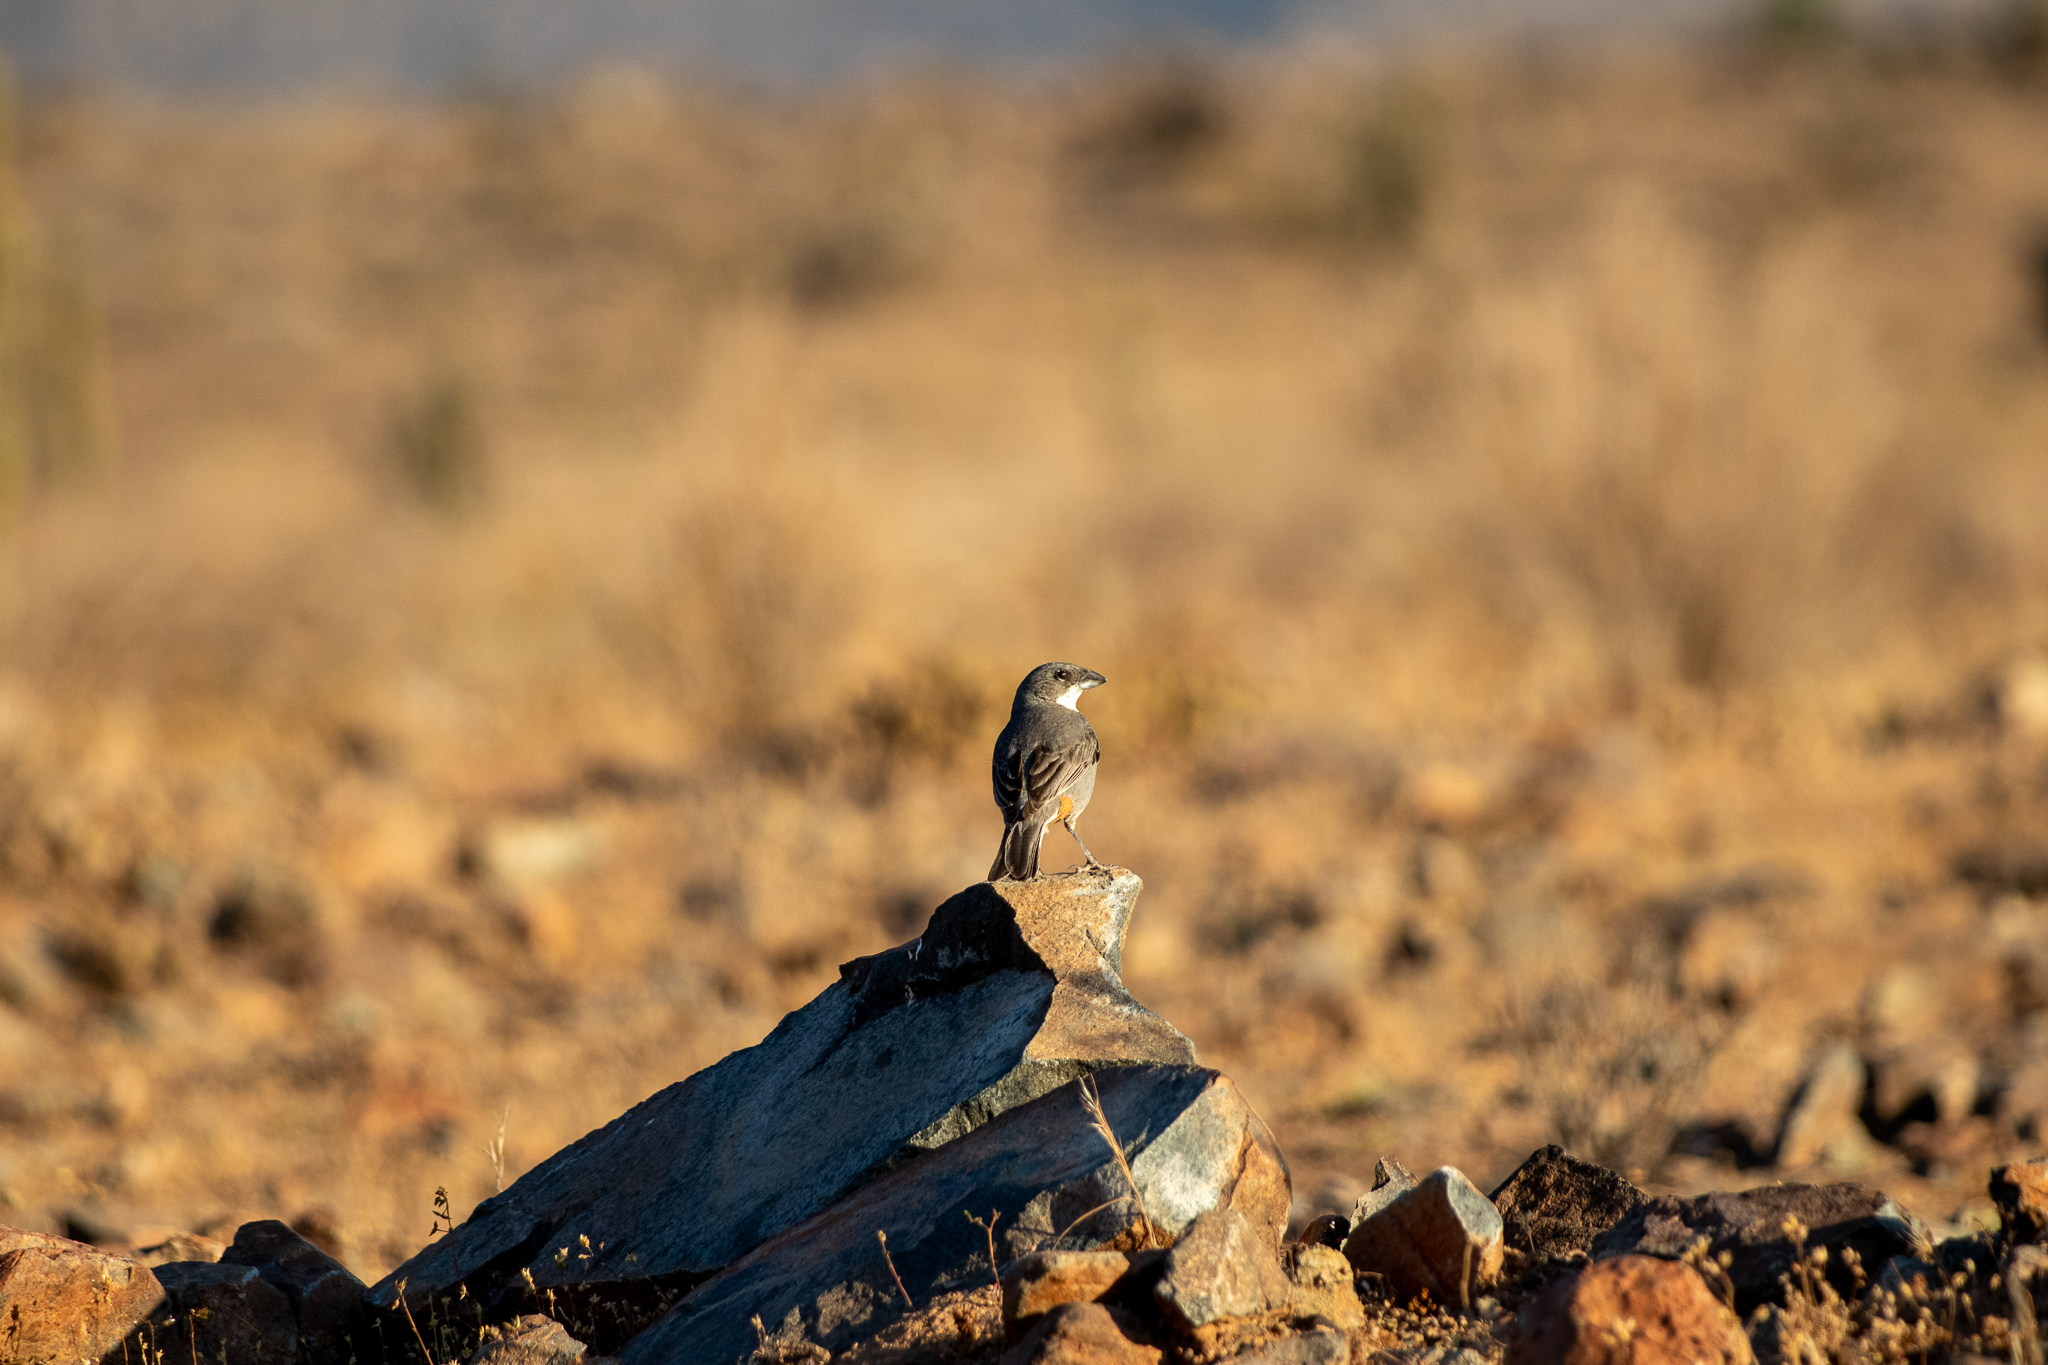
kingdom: Animalia
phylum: Chordata
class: Aves
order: Passeriformes
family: Thraupidae
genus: Diuca
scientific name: Diuca diuca
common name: Common diuca finch
